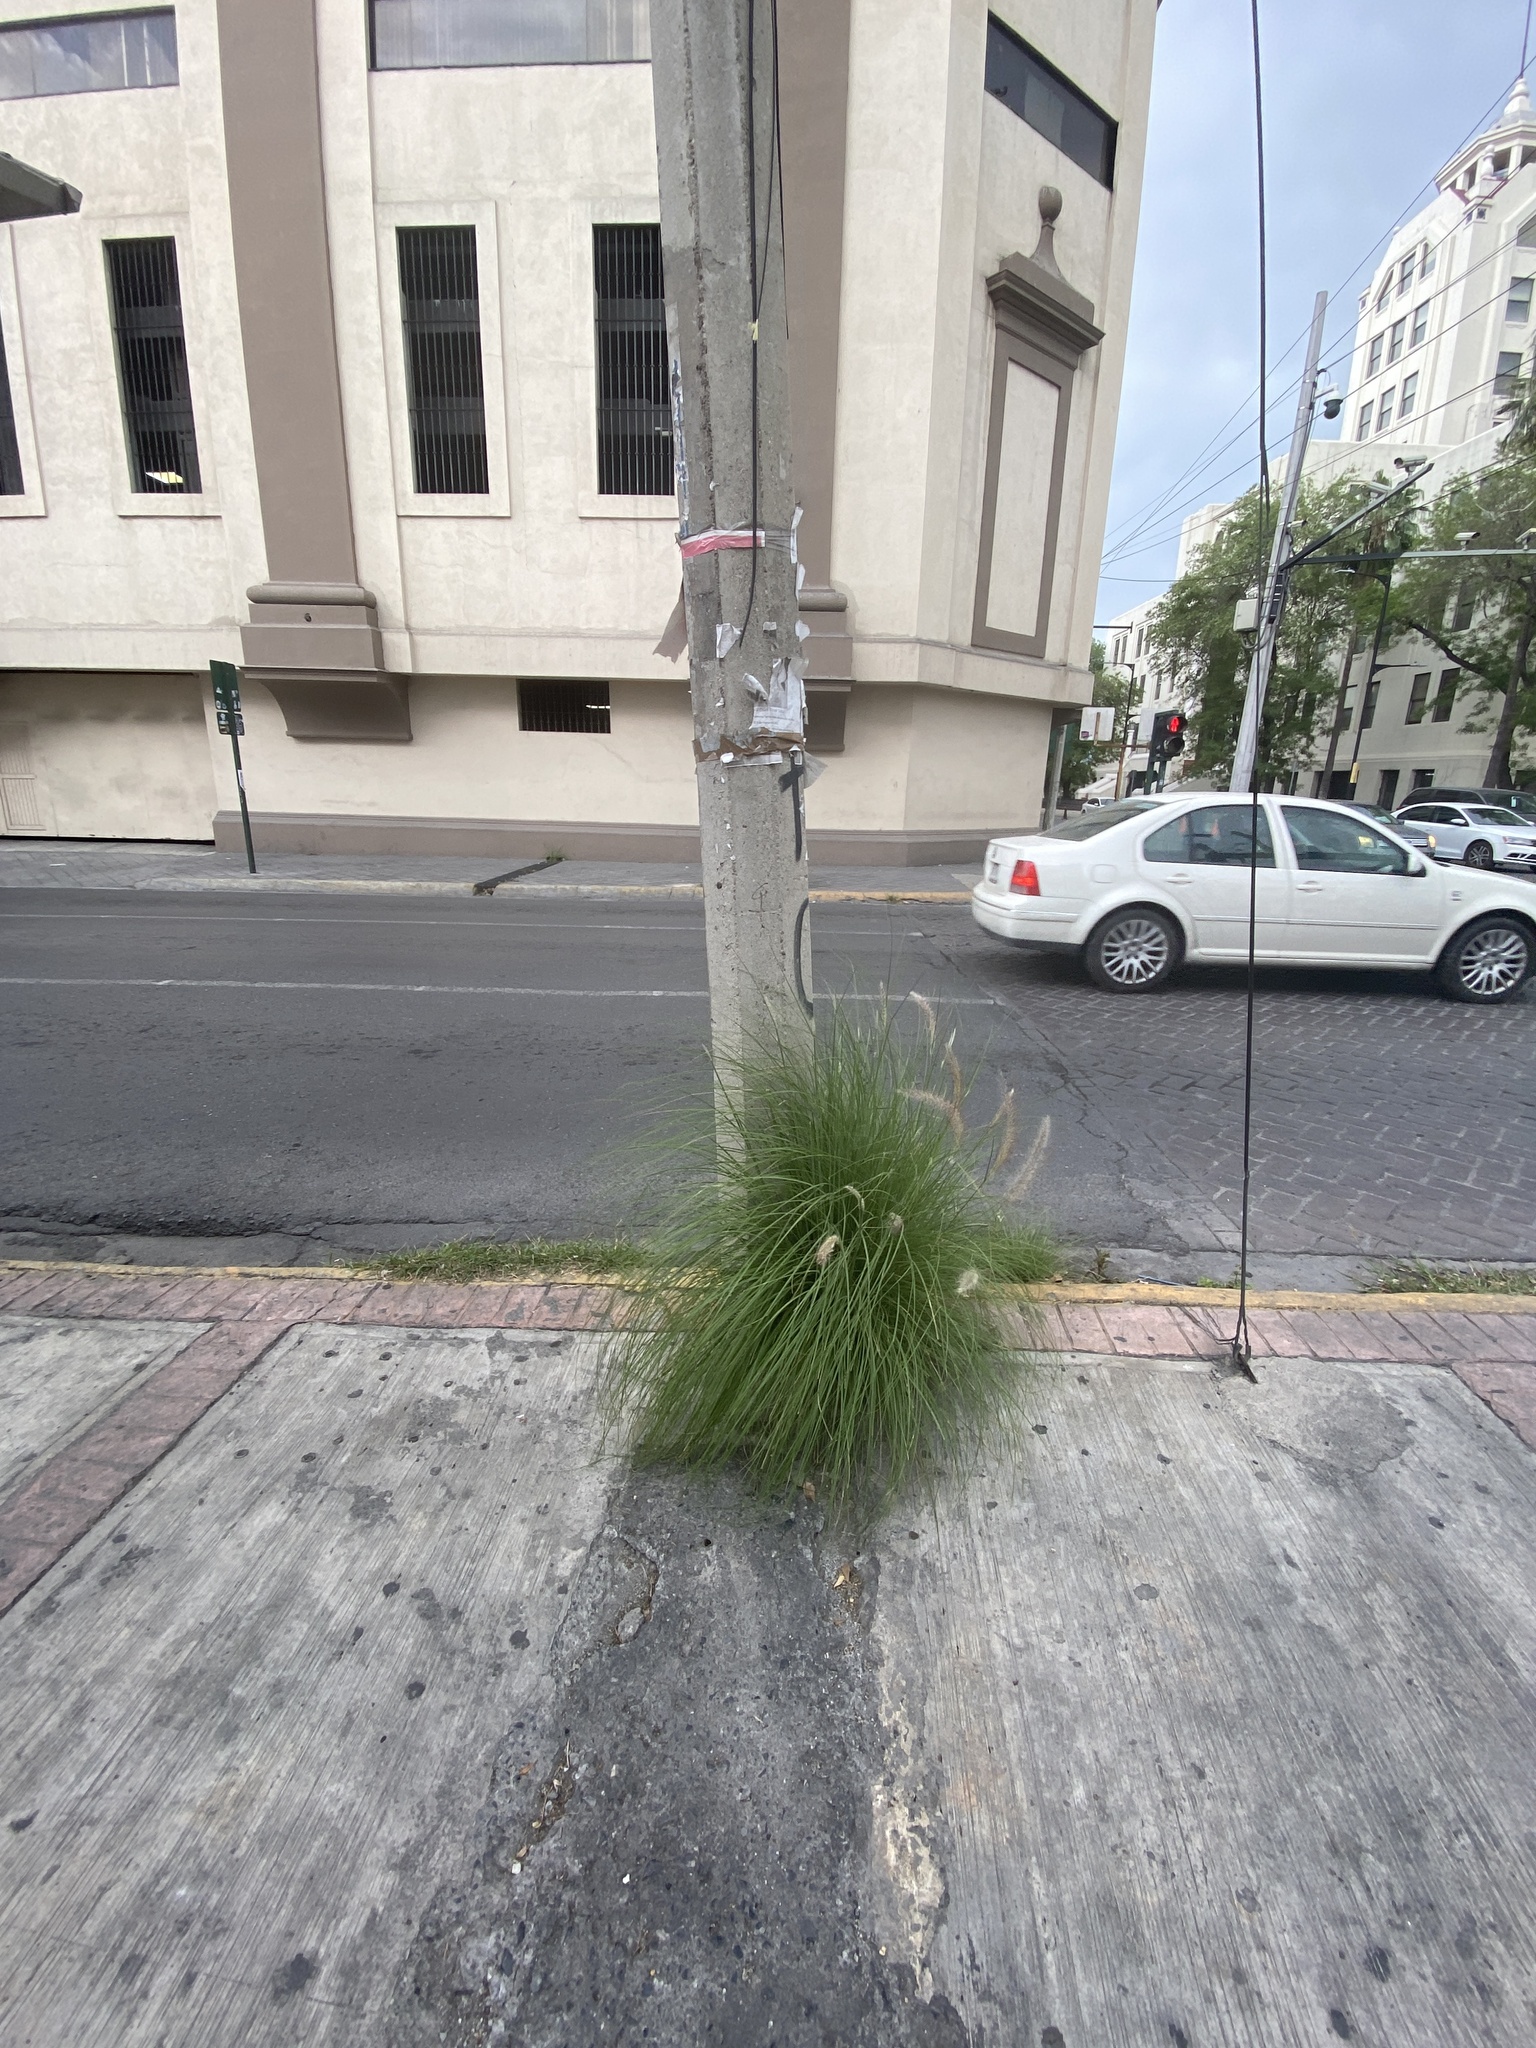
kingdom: Plantae
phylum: Tracheophyta
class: Liliopsida
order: Poales
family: Poaceae
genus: Cenchrus
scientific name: Cenchrus ciliaris
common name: Buffelgrass
